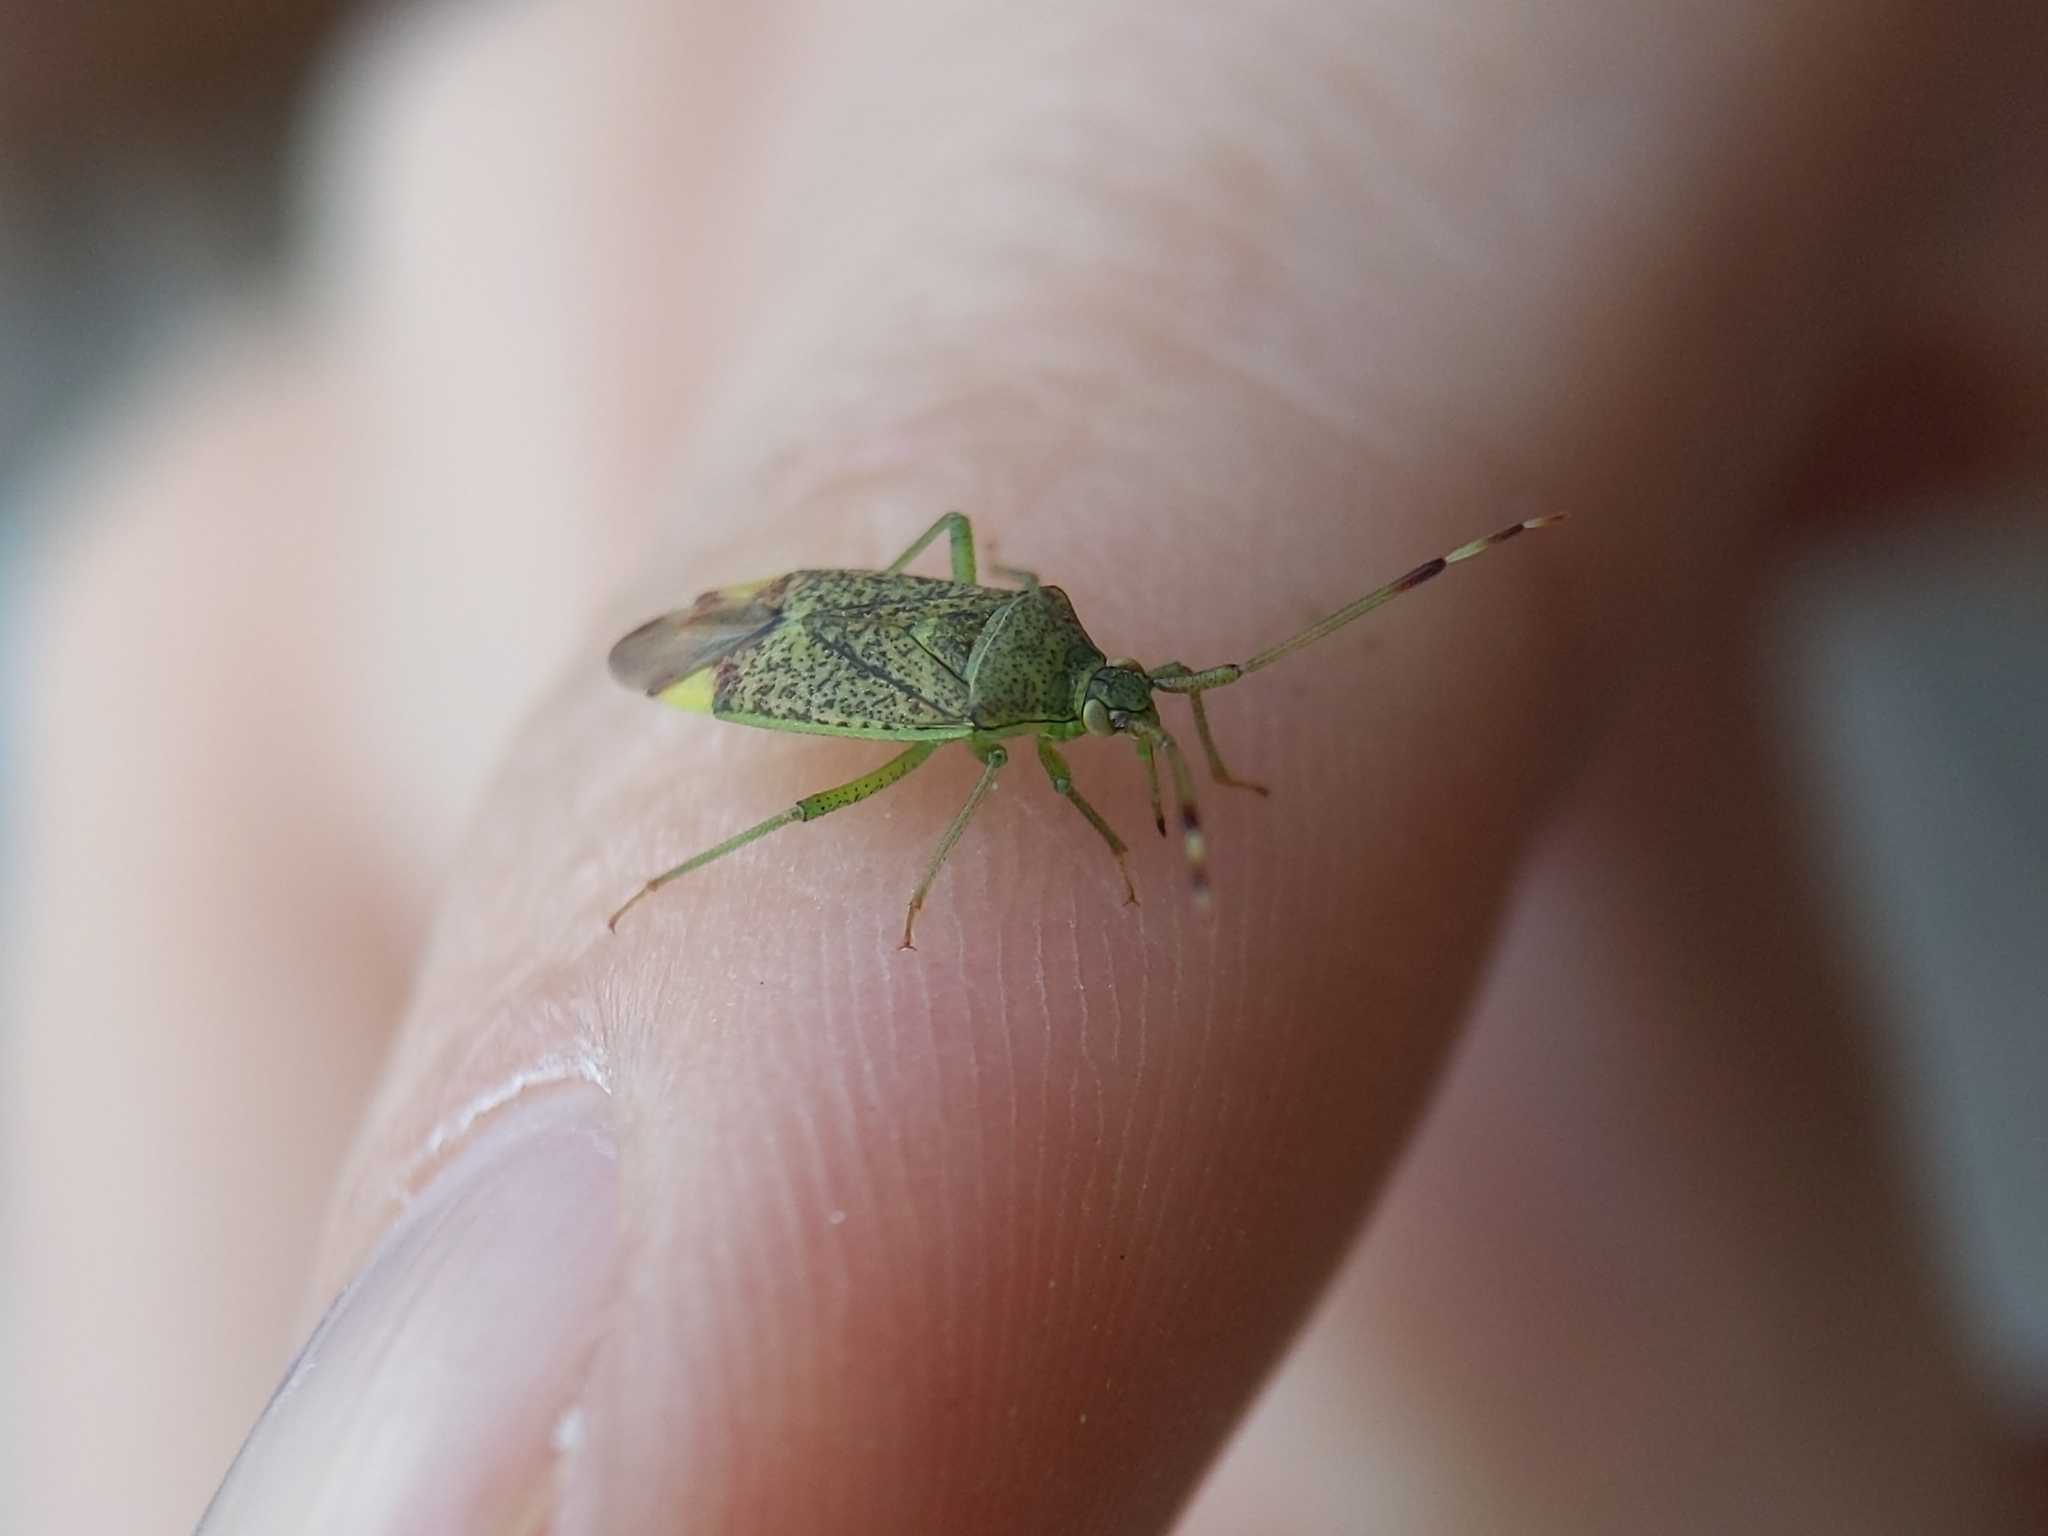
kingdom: Animalia
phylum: Arthropoda
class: Insecta
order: Hemiptera
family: Miridae
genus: Pantilius
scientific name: Pantilius tunicatus
